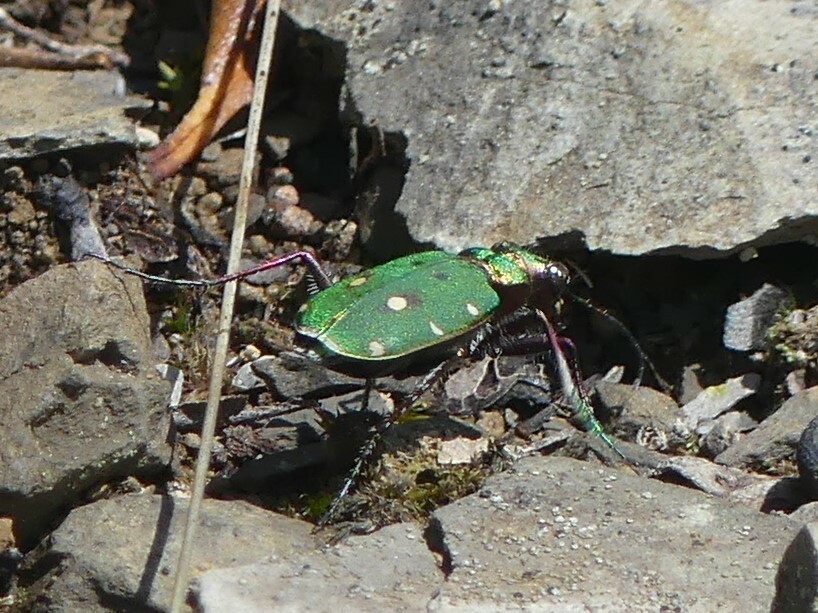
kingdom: Animalia
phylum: Arthropoda
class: Insecta
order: Coleoptera
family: Carabidae
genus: Cicindela
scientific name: Cicindela campestris
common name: Common tiger beetle
